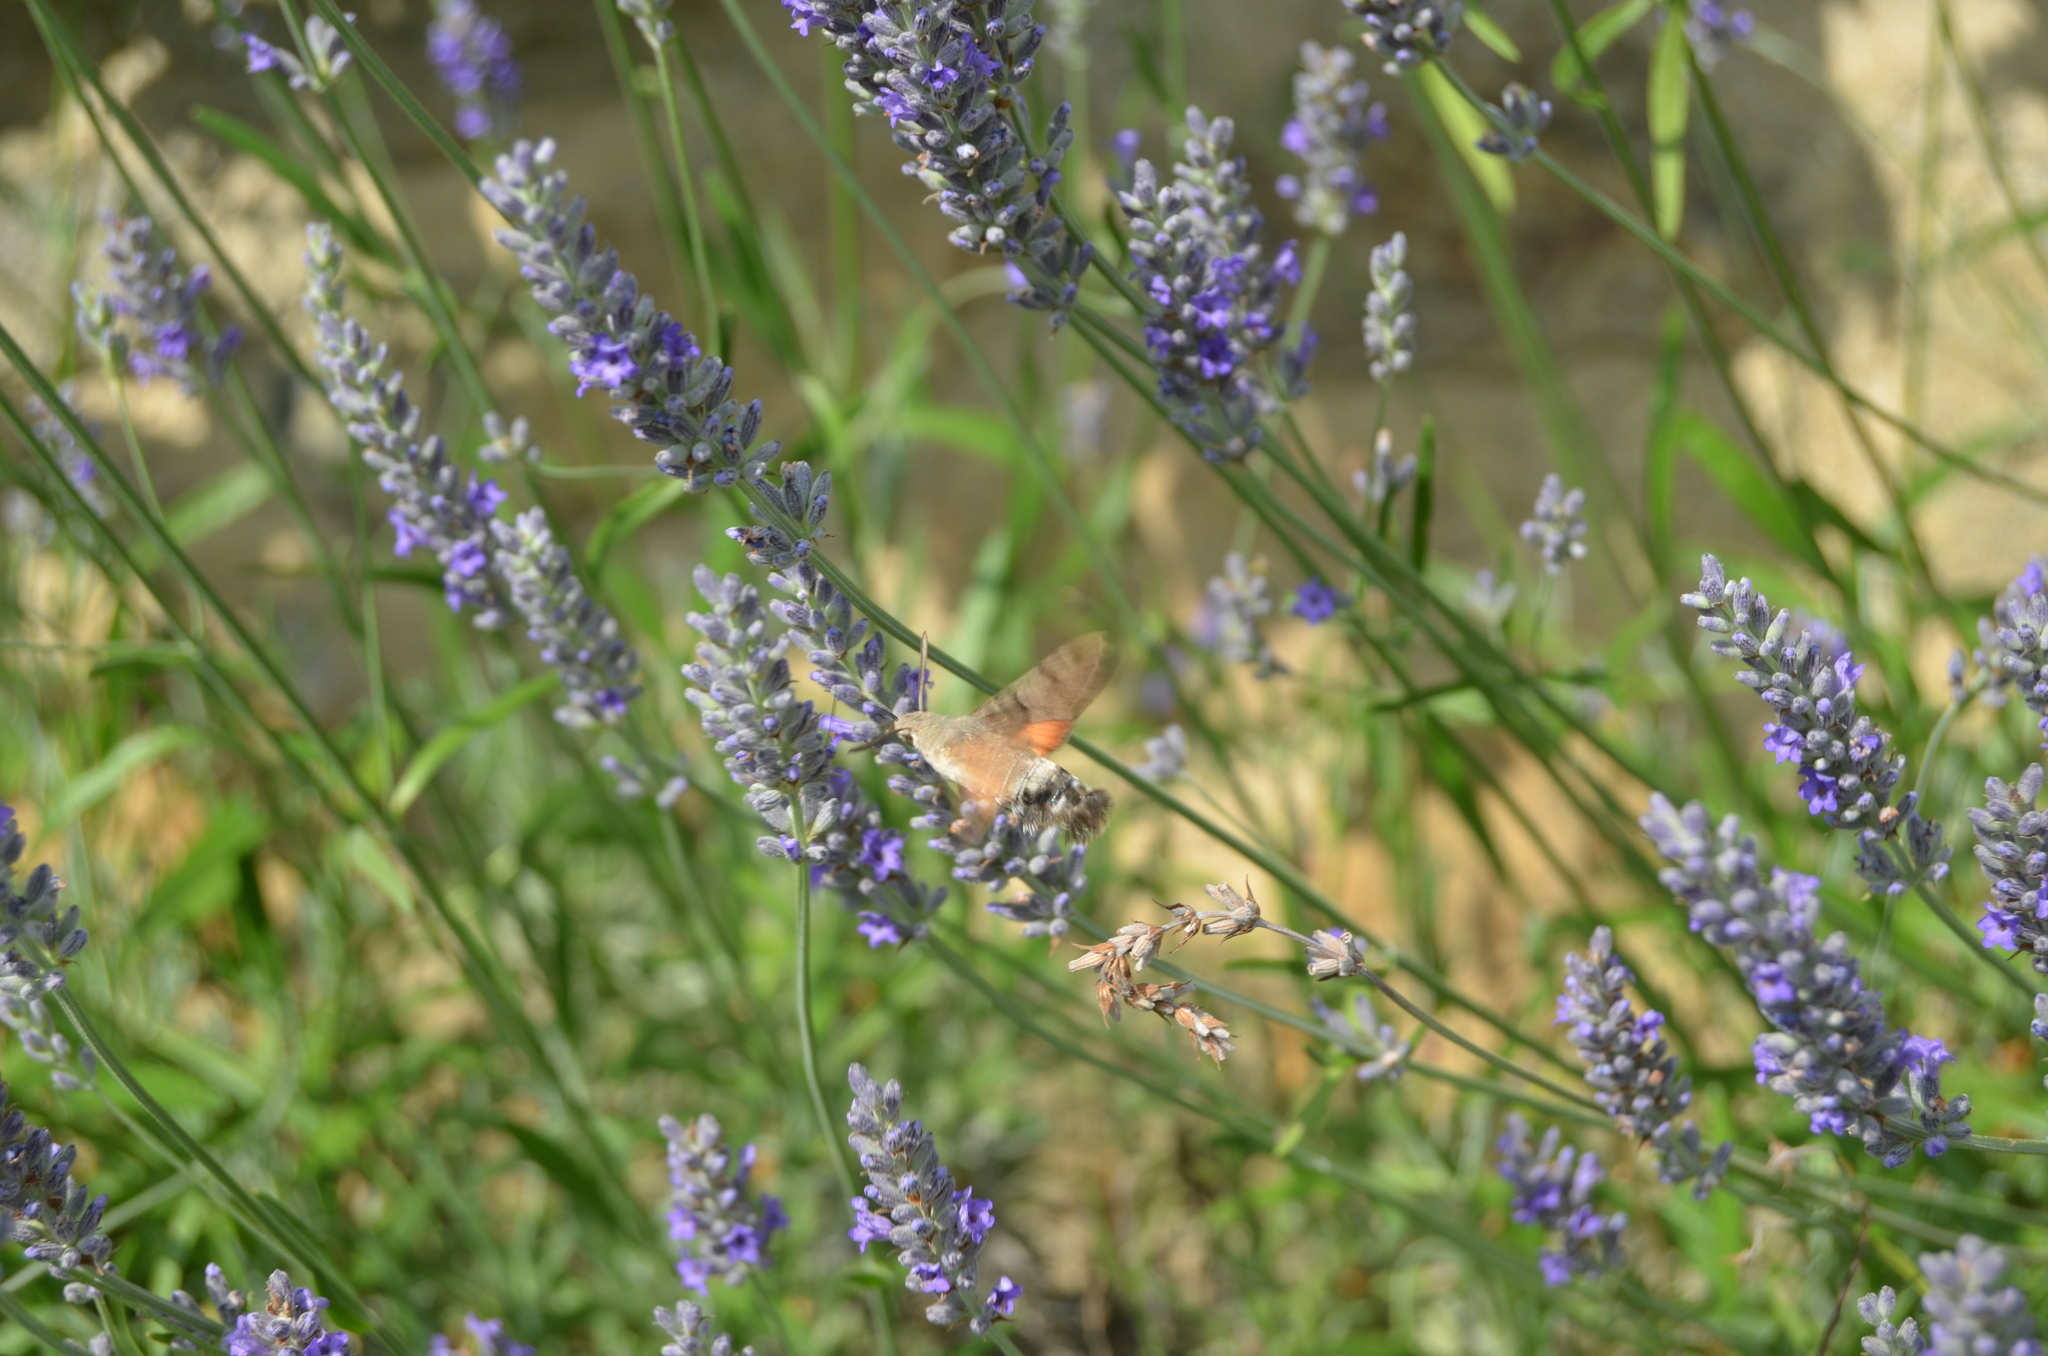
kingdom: Animalia
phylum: Arthropoda
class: Insecta
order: Lepidoptera
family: Sphingidae
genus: Macroglossum
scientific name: Macroglossum stellatarum
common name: Humming-bird hawk-moth
